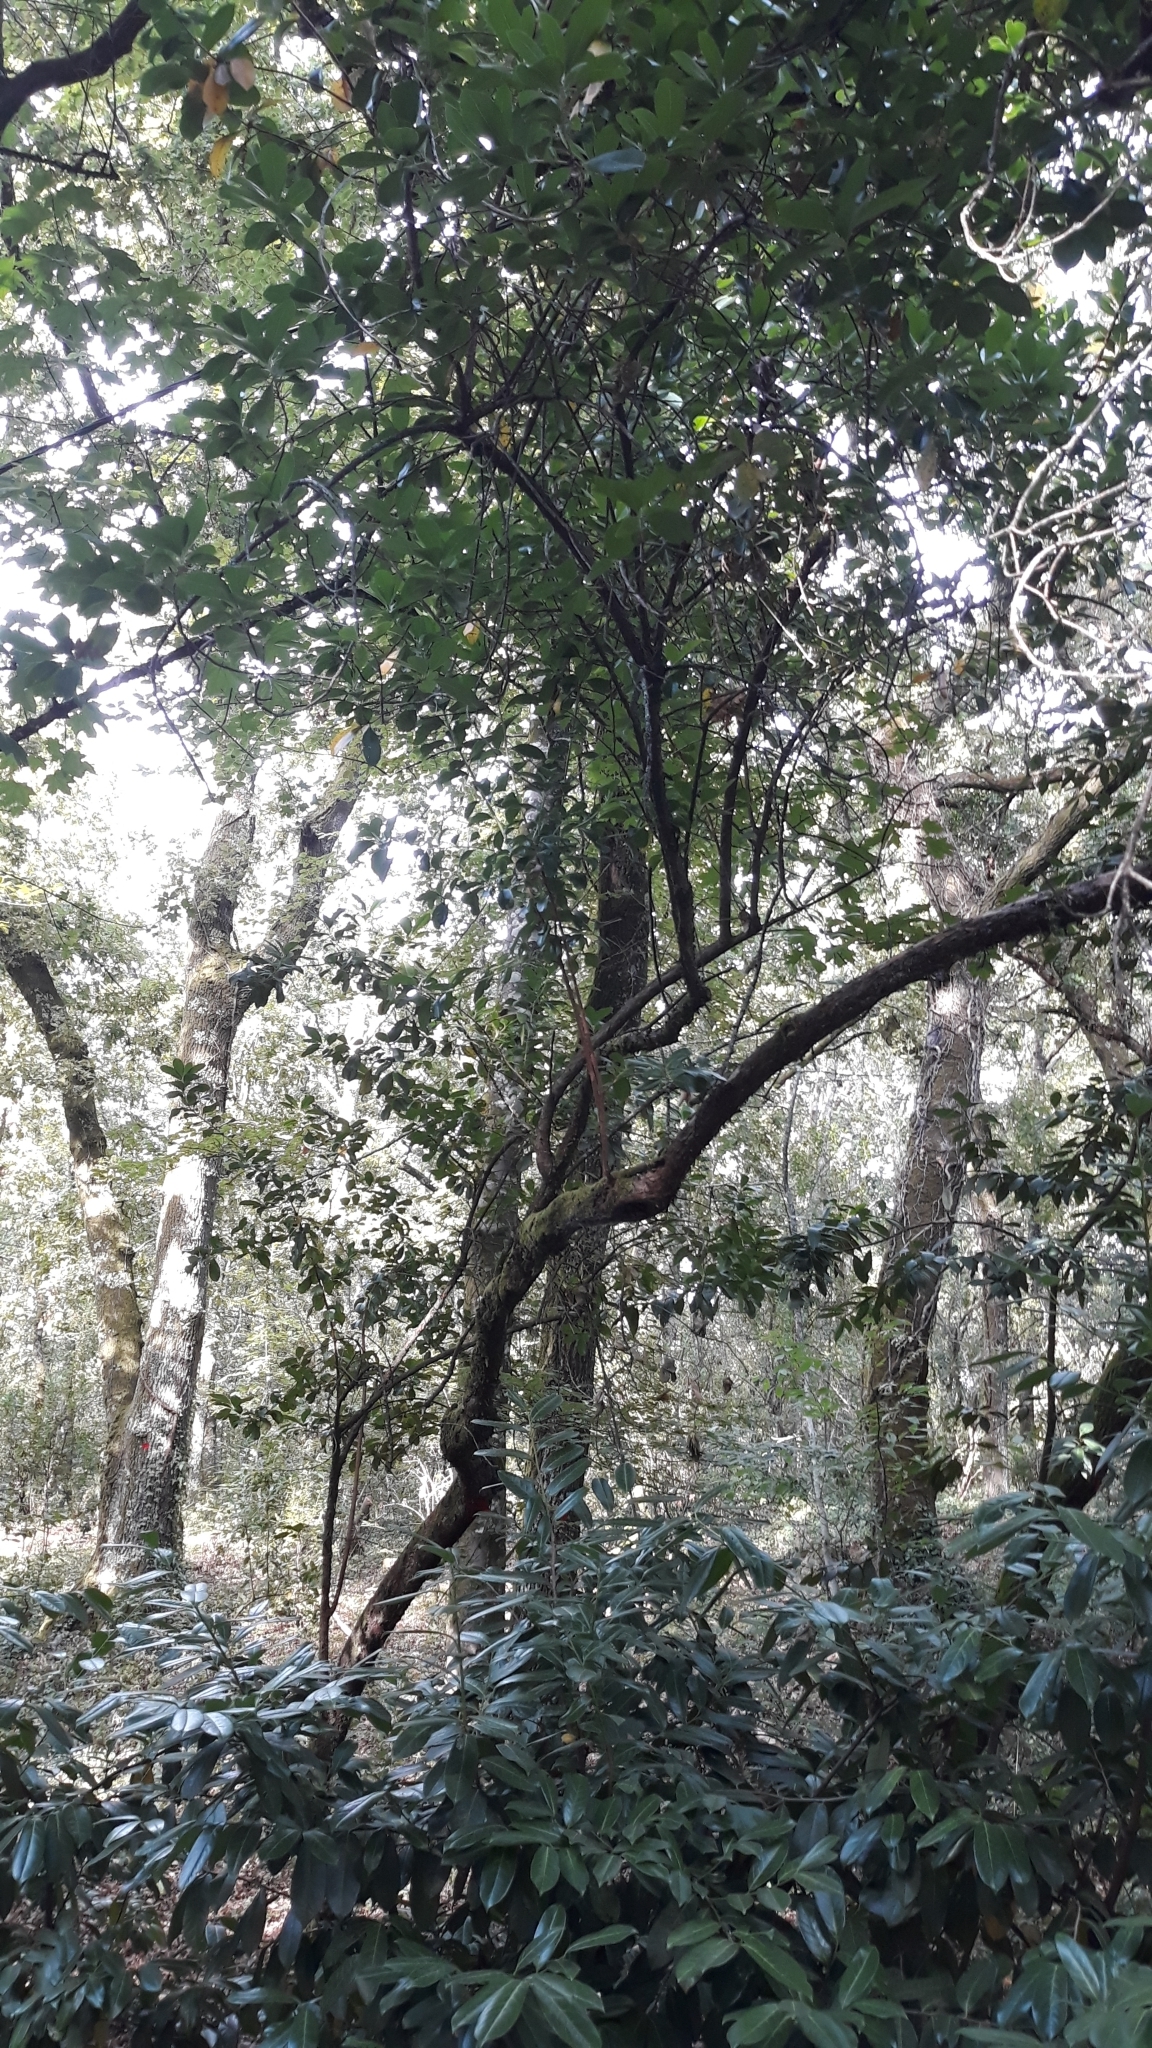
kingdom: Plantae
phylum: Tracheophyta
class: Magnoliopsida
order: Ericales
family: Ericaceae
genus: Arbutus
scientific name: Arbutus unedo
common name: Strawberry-tree
